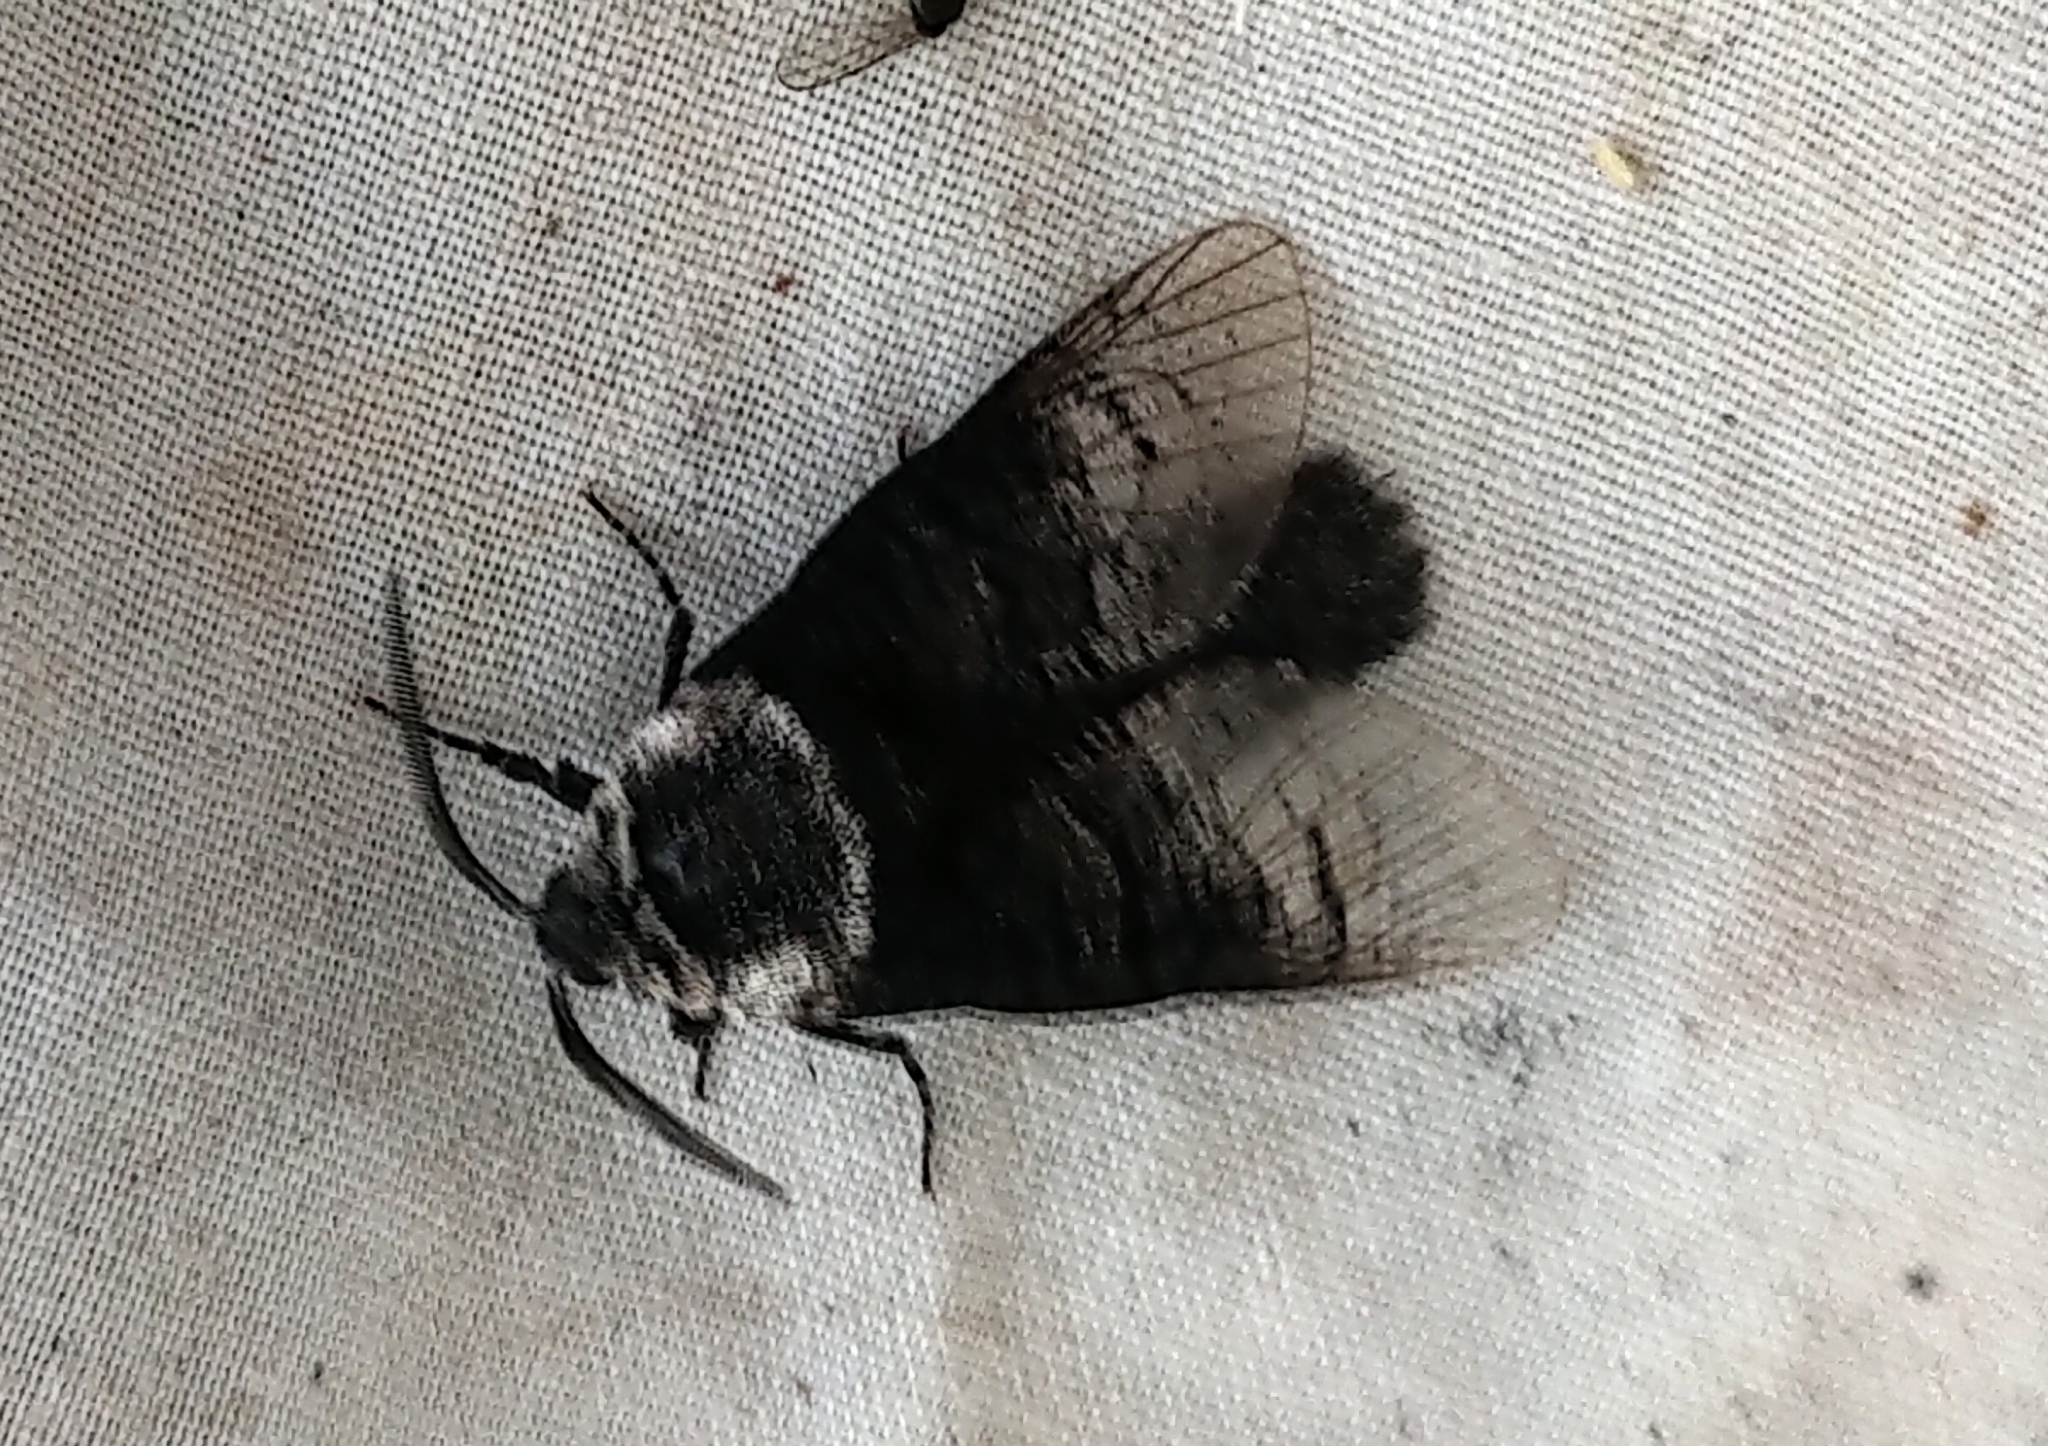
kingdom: Animalia
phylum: Arthropoda
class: Insecta
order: Lepidoptera
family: Cossidae
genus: Acossus
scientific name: Acossus centerensis
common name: Poplar carpenterworm moth
